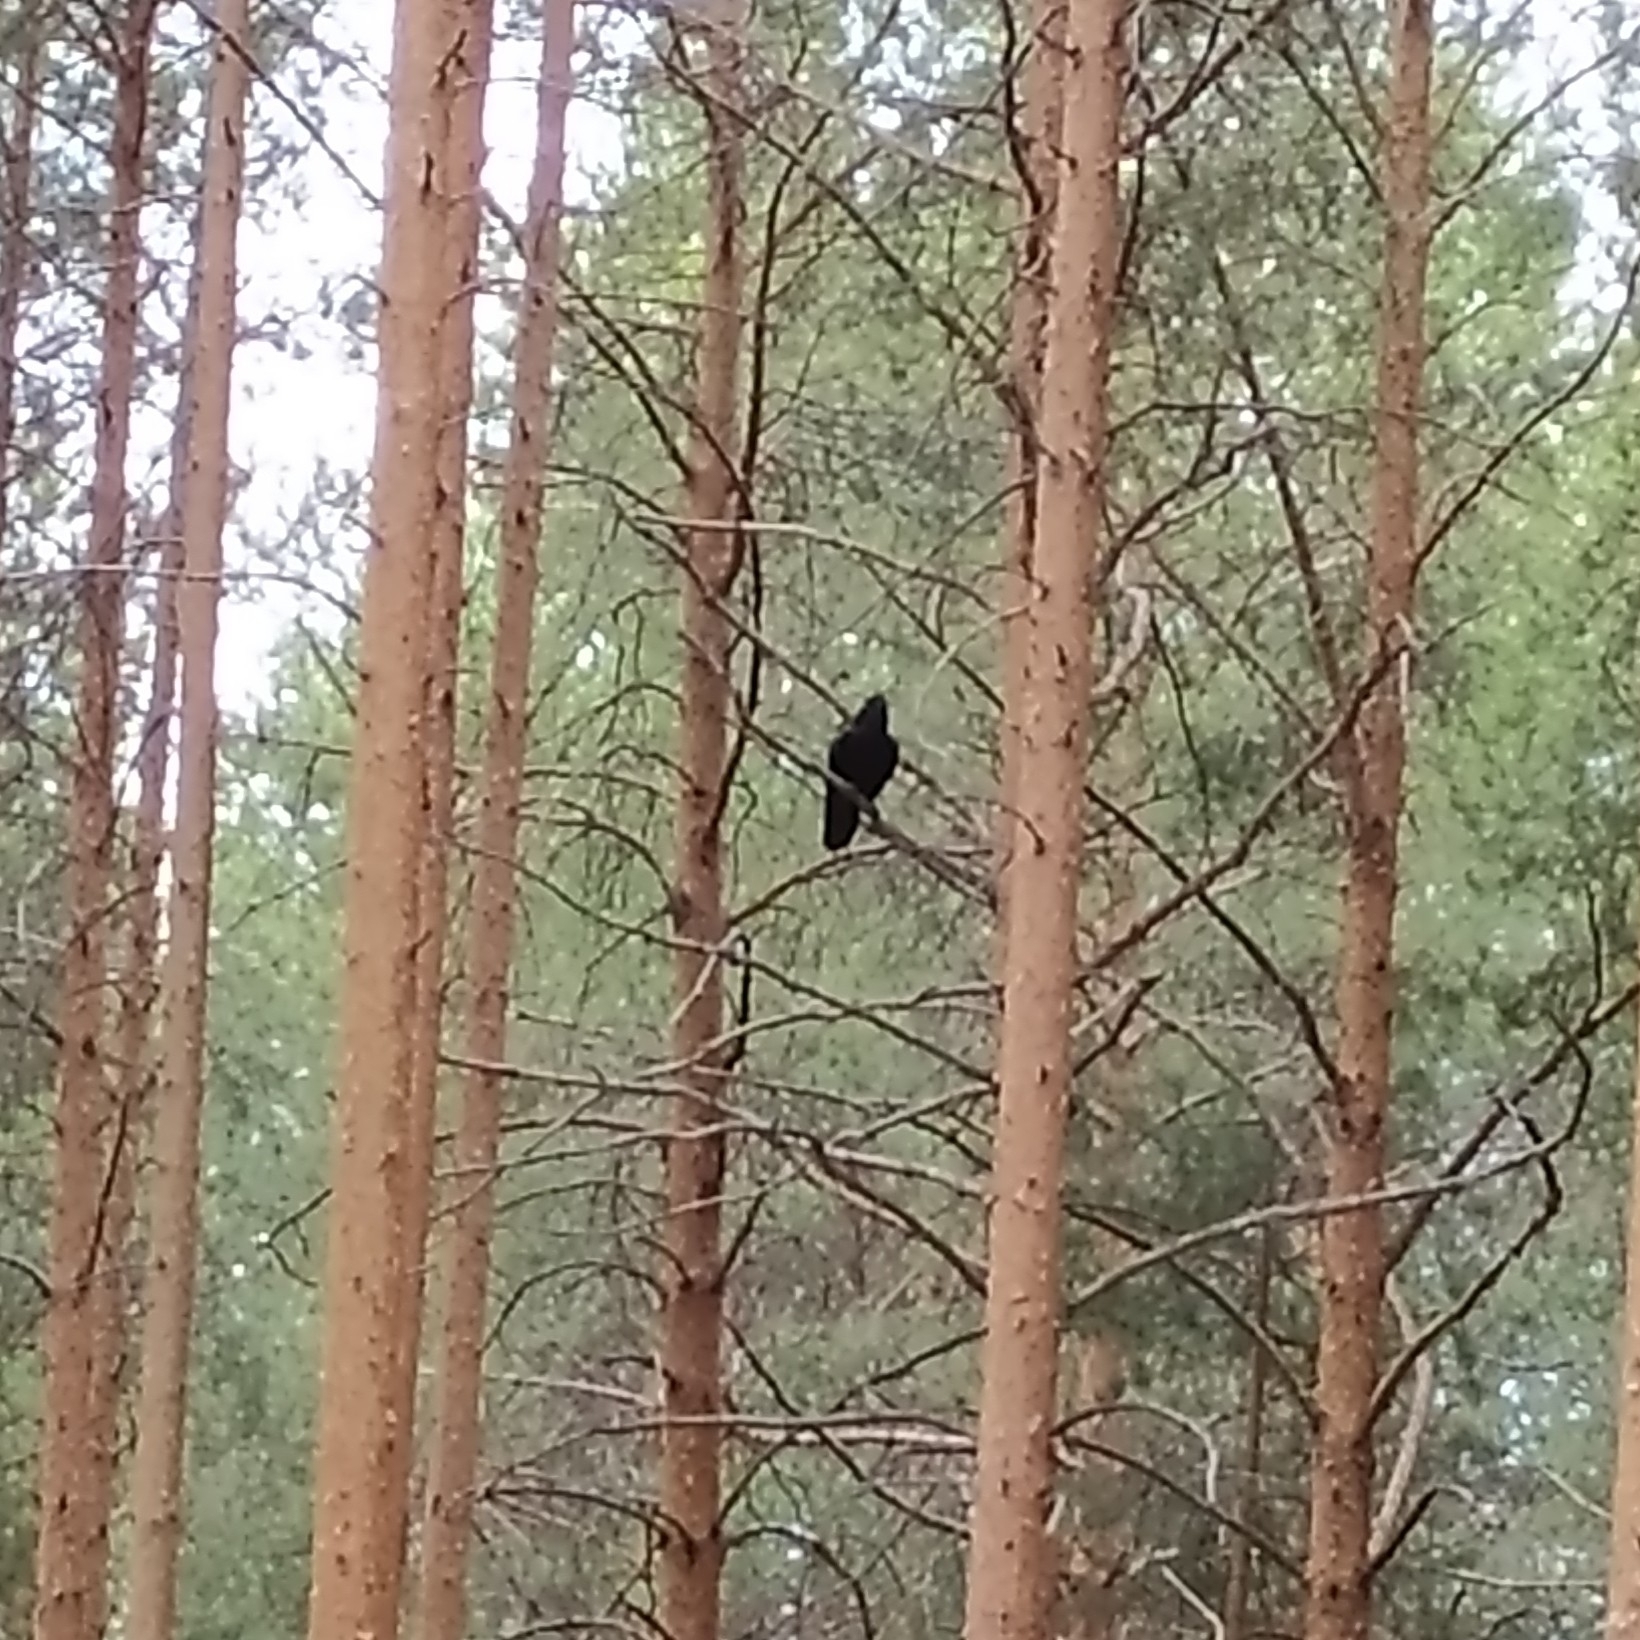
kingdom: Animalia
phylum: Chordata
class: Aves
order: Passeriformes
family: Corvidae
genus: Corvus
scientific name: Corvus corax
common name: Common raven
